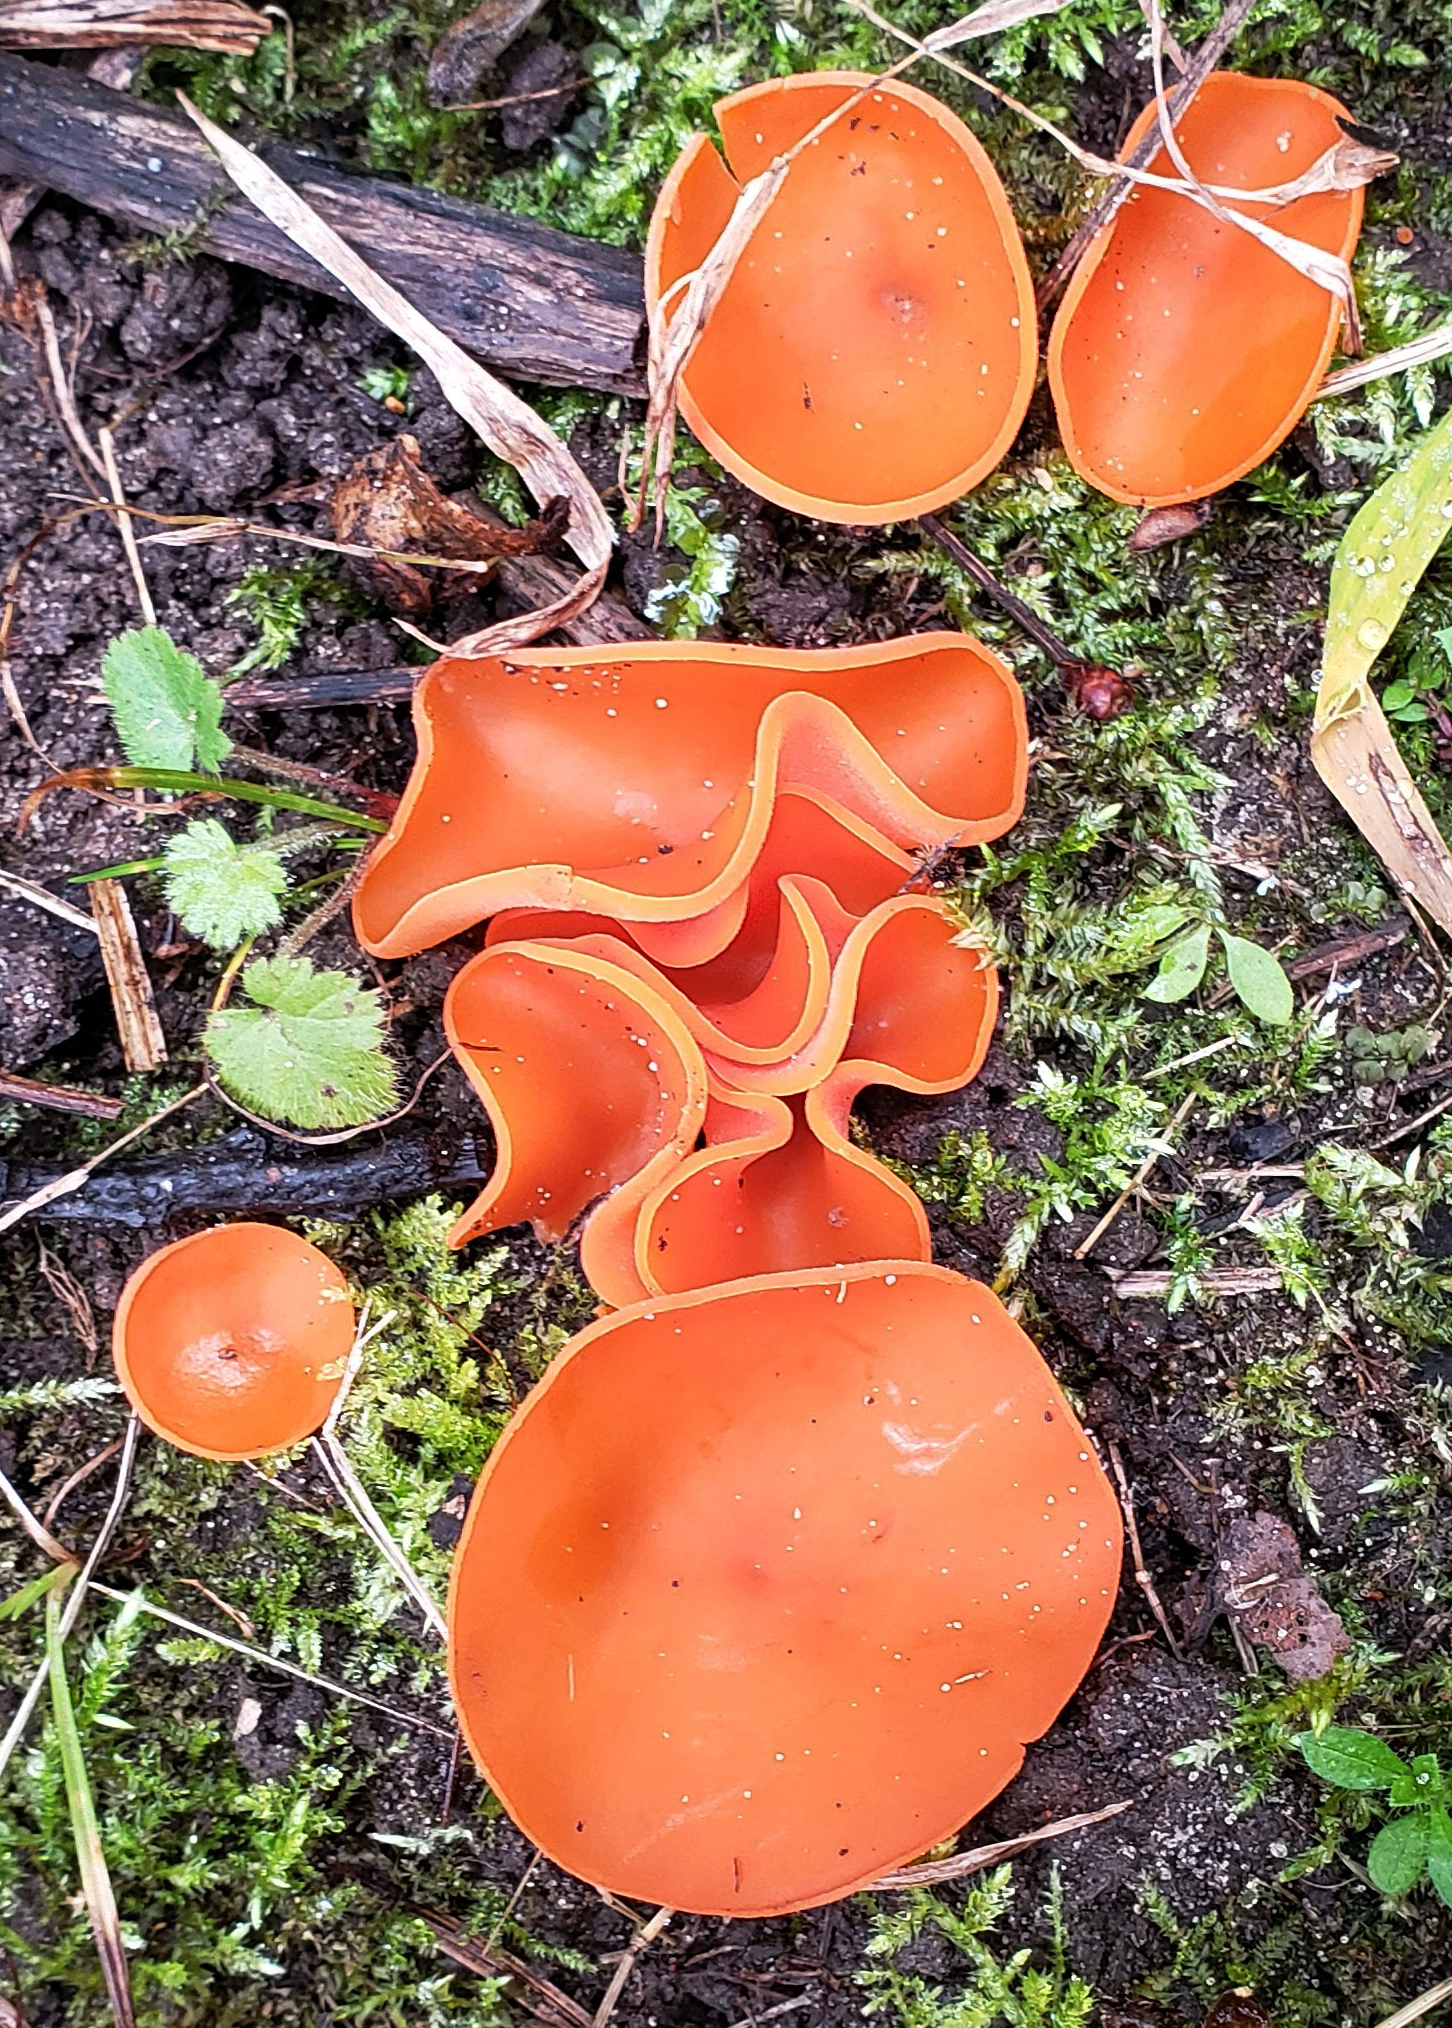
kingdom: Fungi
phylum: Ascomycota
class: Pezizomycetes
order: Pezizales
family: Pyronemataceae
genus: Aleuria
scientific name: Aleuria aurantia
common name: Orange peel fungus
